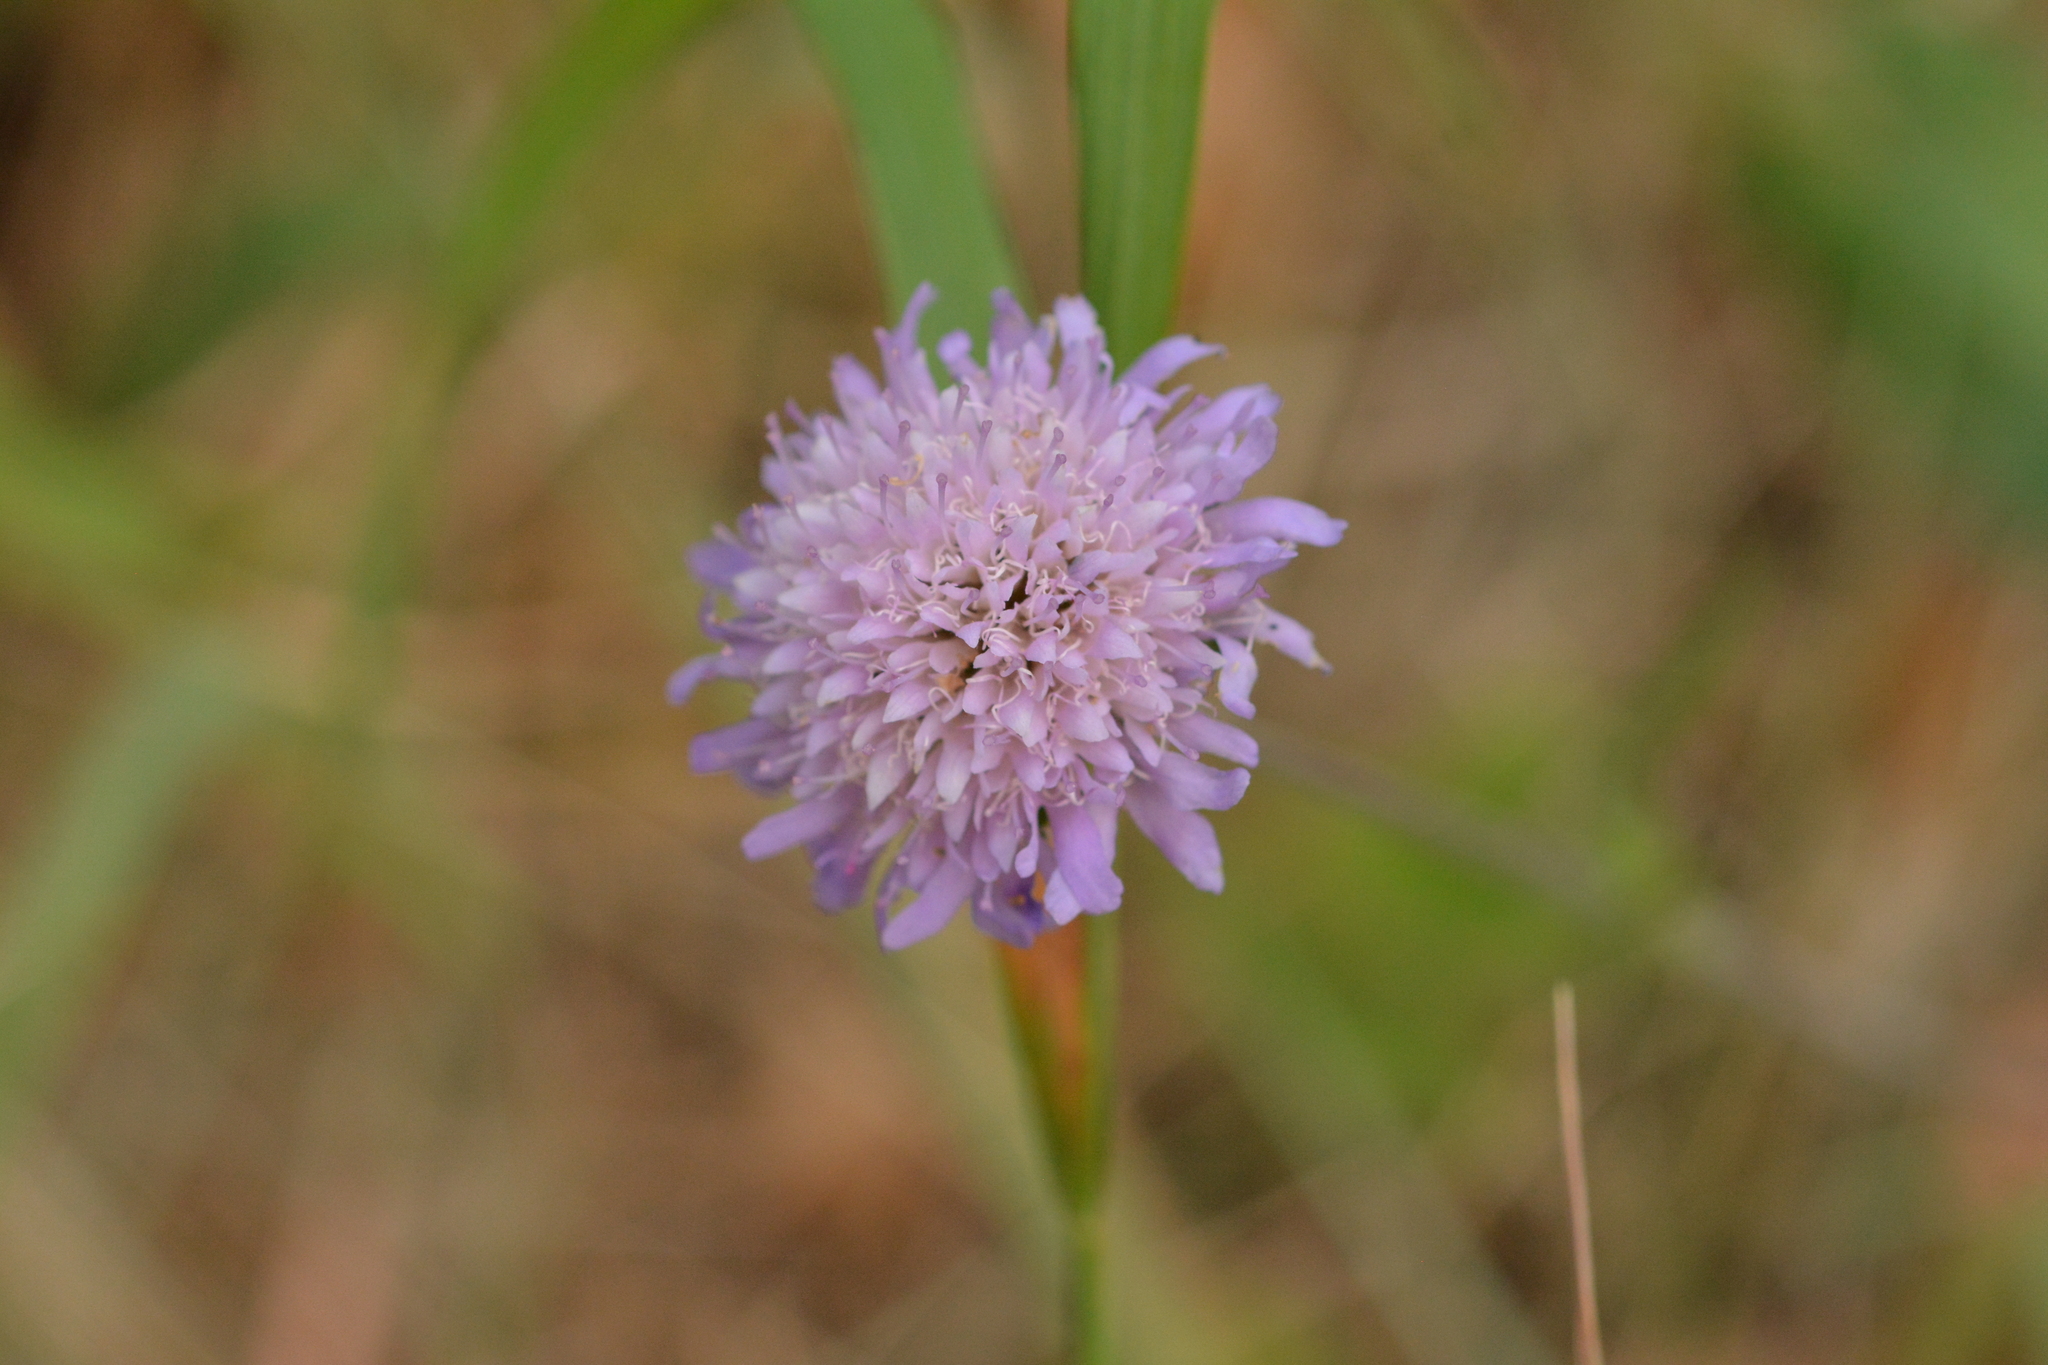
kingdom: Plantae
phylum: Tracheophyta
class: Magnoliopsida
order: Dipsacales
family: Caprifoliaceae
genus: Knautia
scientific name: Knautia arvensis
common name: Field scabiosa
